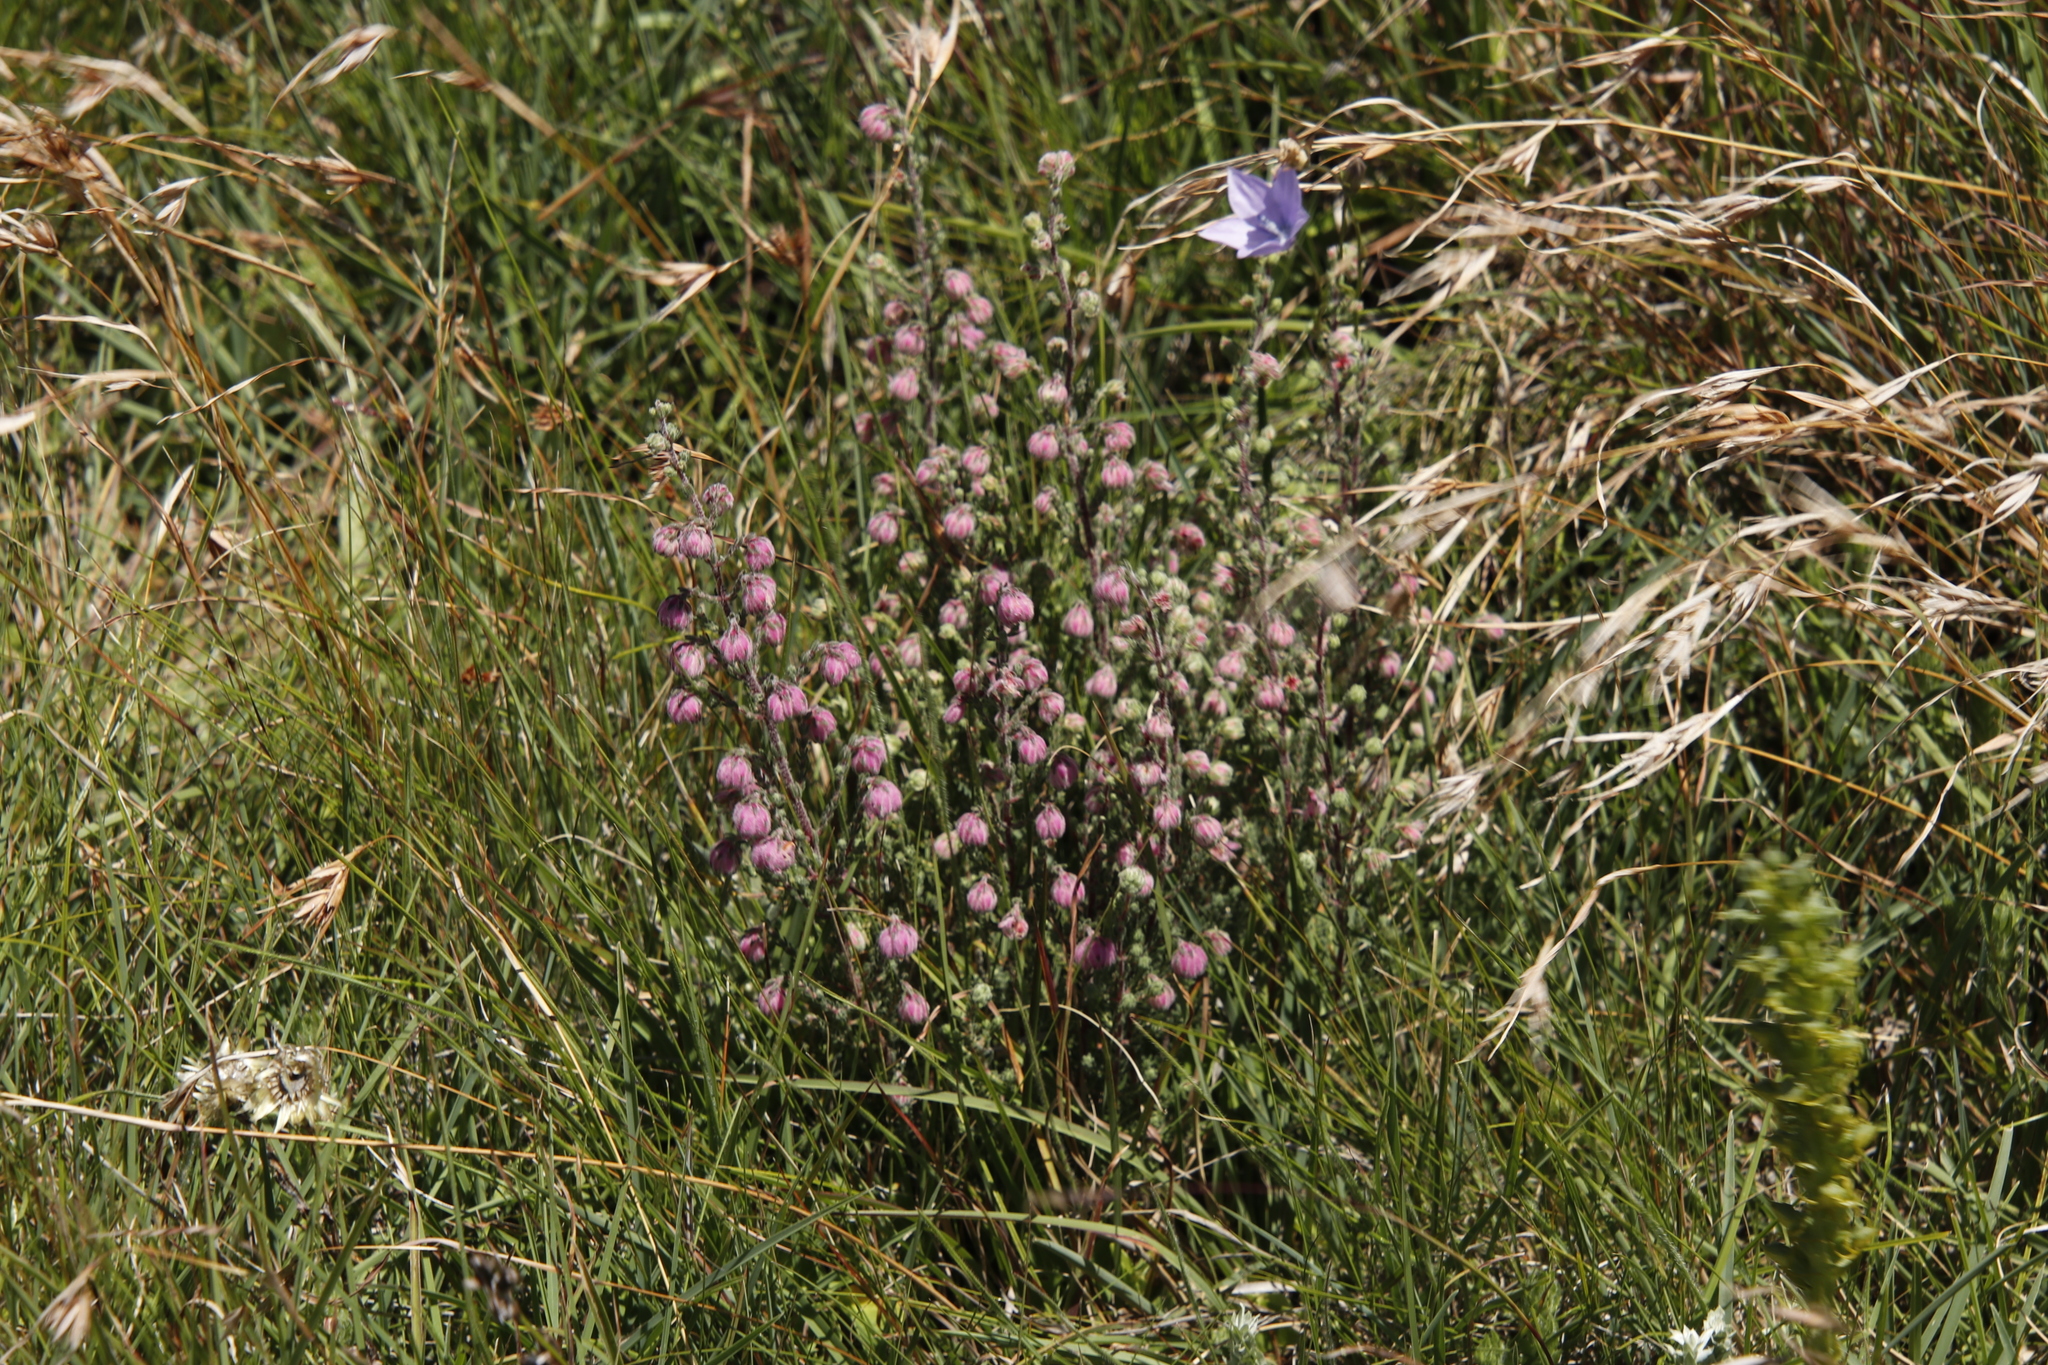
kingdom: Plantae
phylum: Tracheophyta
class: Magnoliopsida
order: Ericales
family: Ericaceae
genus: Erica
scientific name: Erica cooperi
